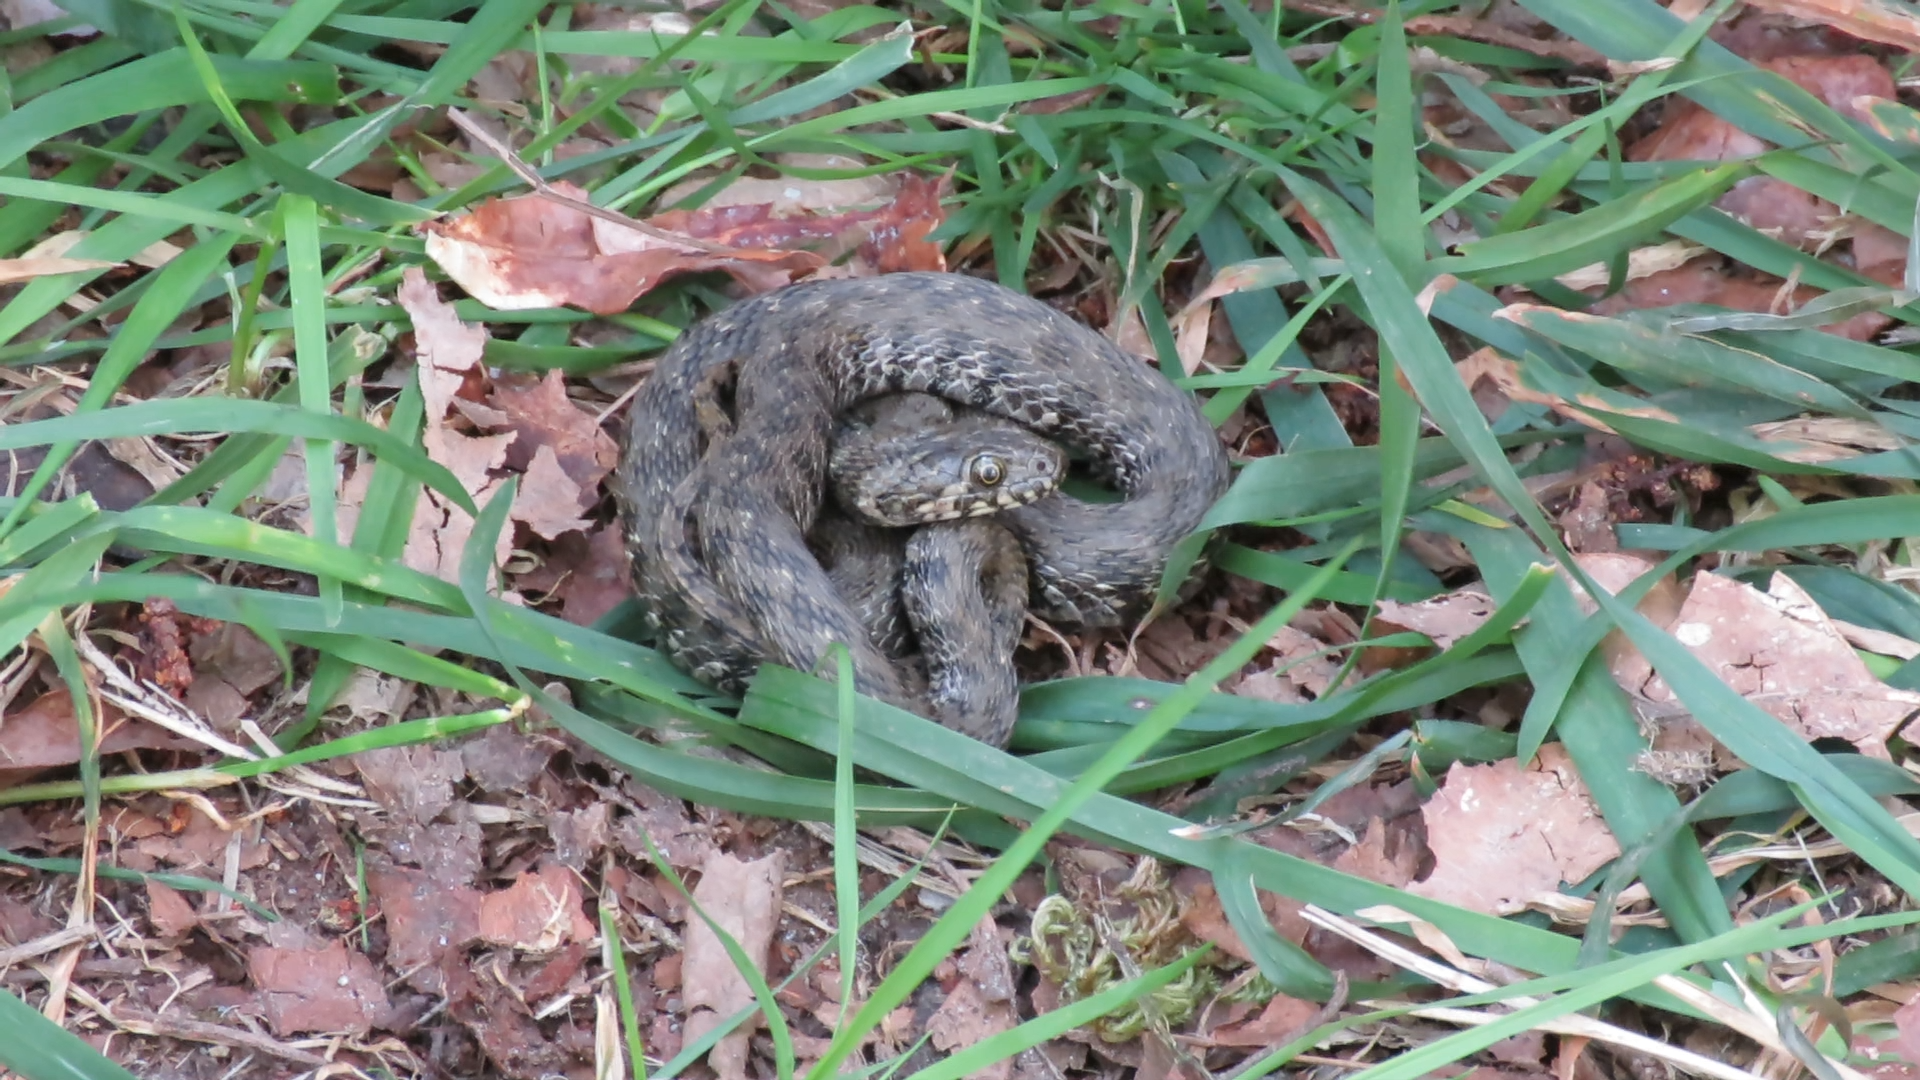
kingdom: Animalia
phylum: Chordata
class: Squamata
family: Colubridae
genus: Natrix
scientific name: Natrix maura
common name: Viperine water snake
